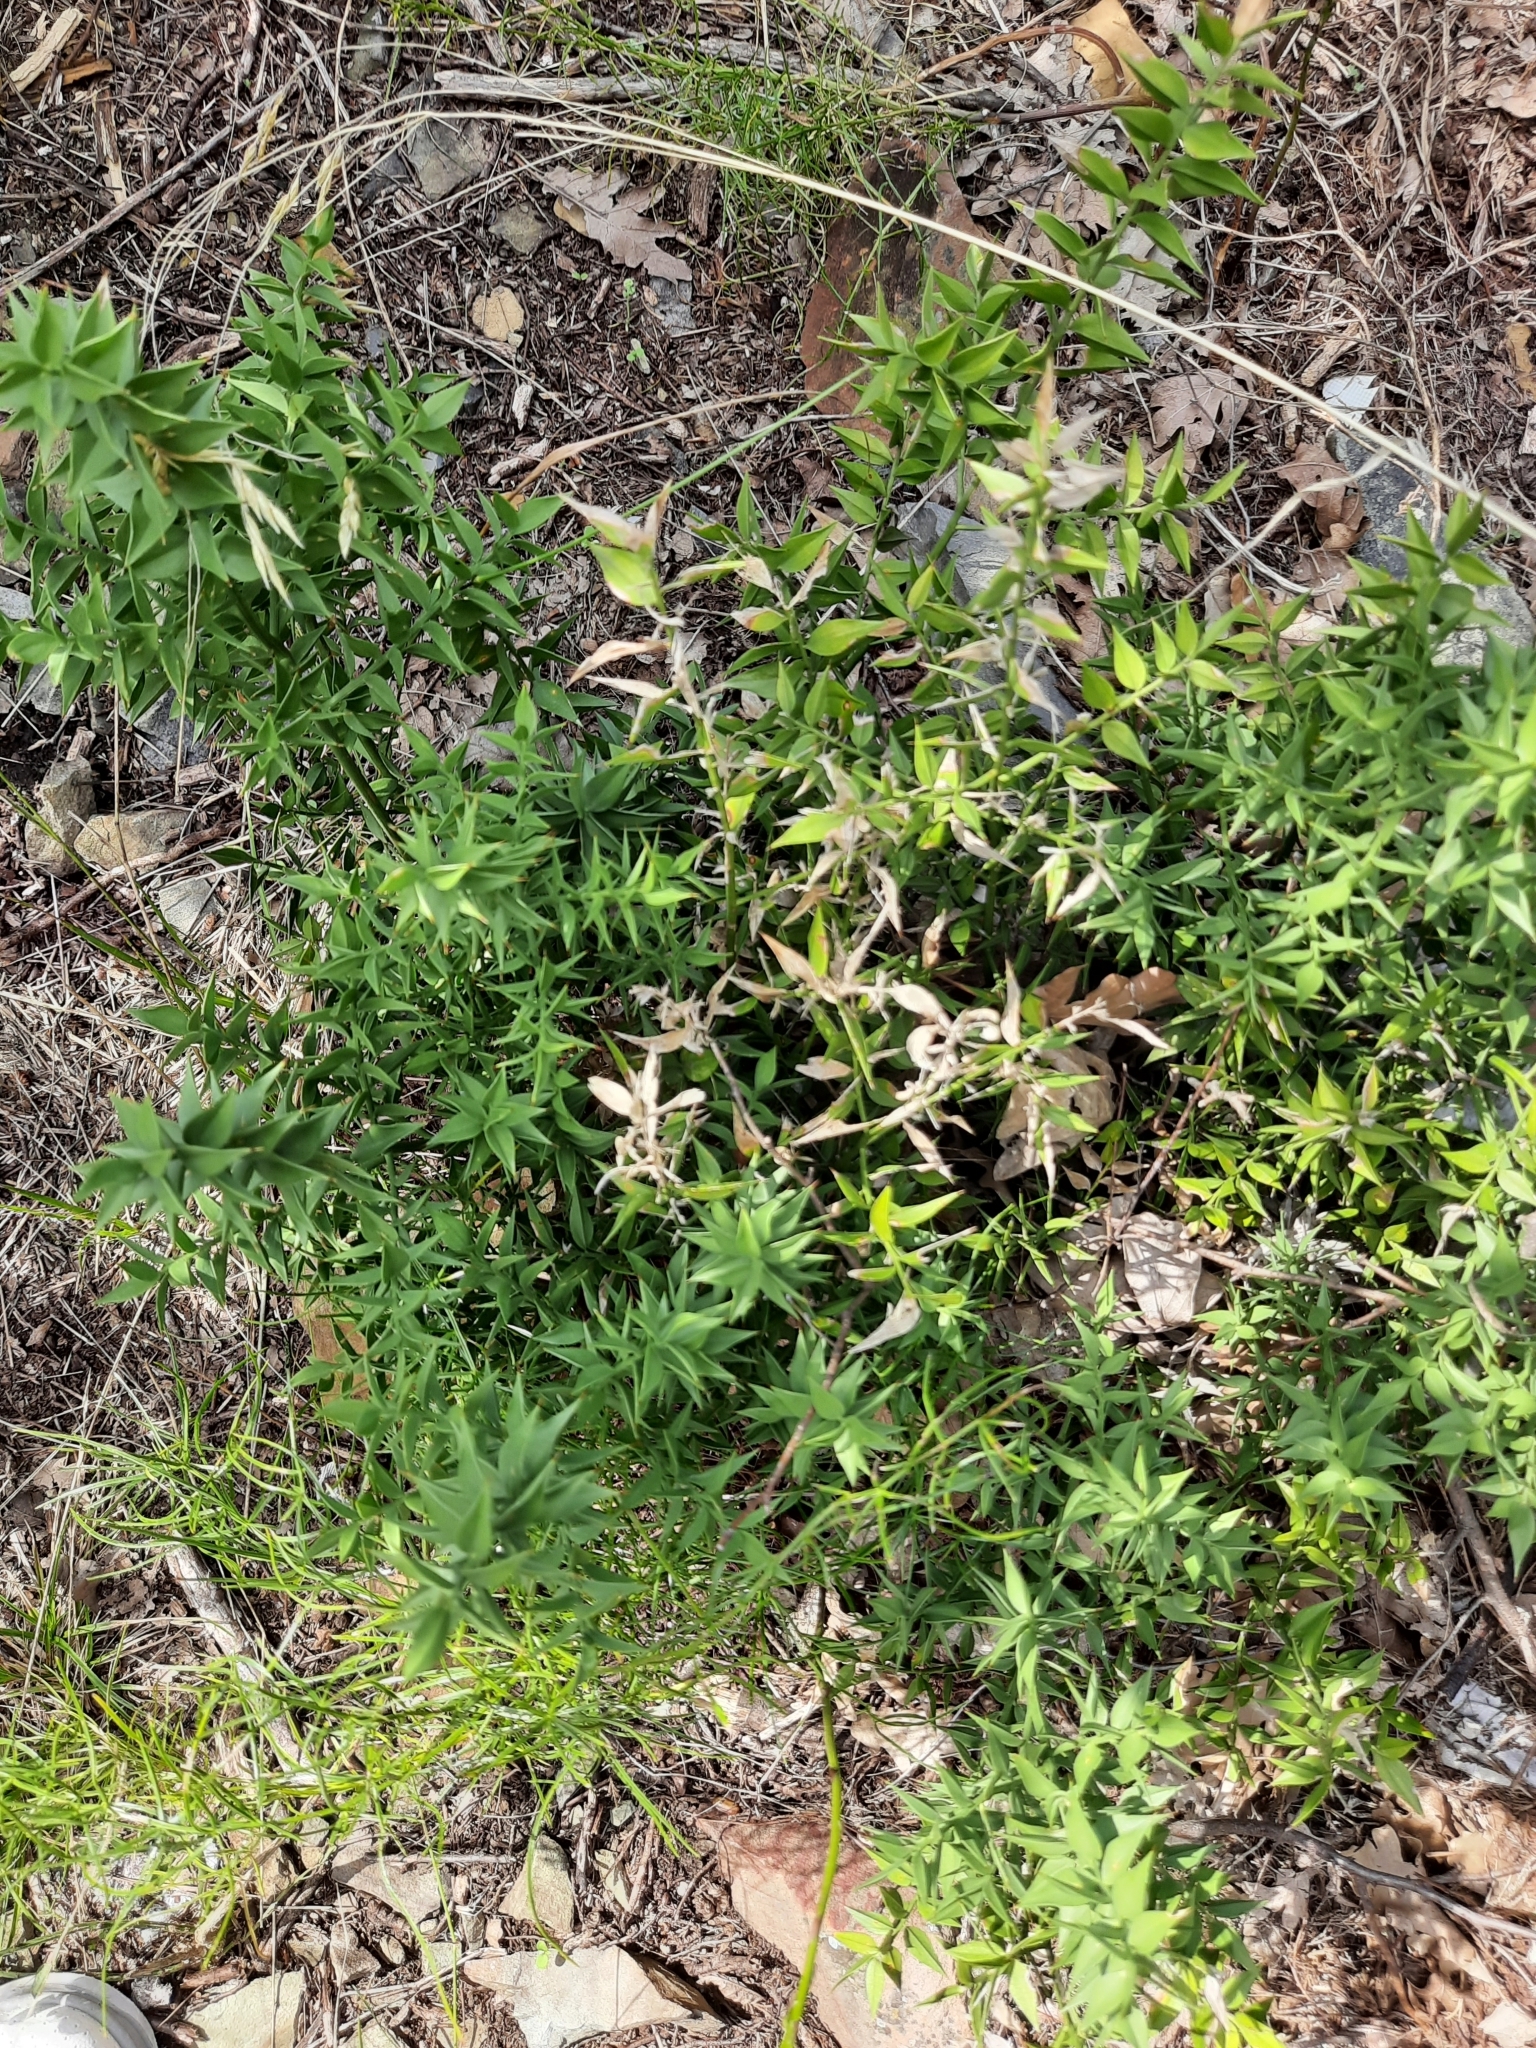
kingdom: Plantae
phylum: Tracheophyta
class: Liliopsida
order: Asparagales
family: Asparagaceae
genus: Ruscus
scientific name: Ruscus aculeatus
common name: Butcher's-broom
